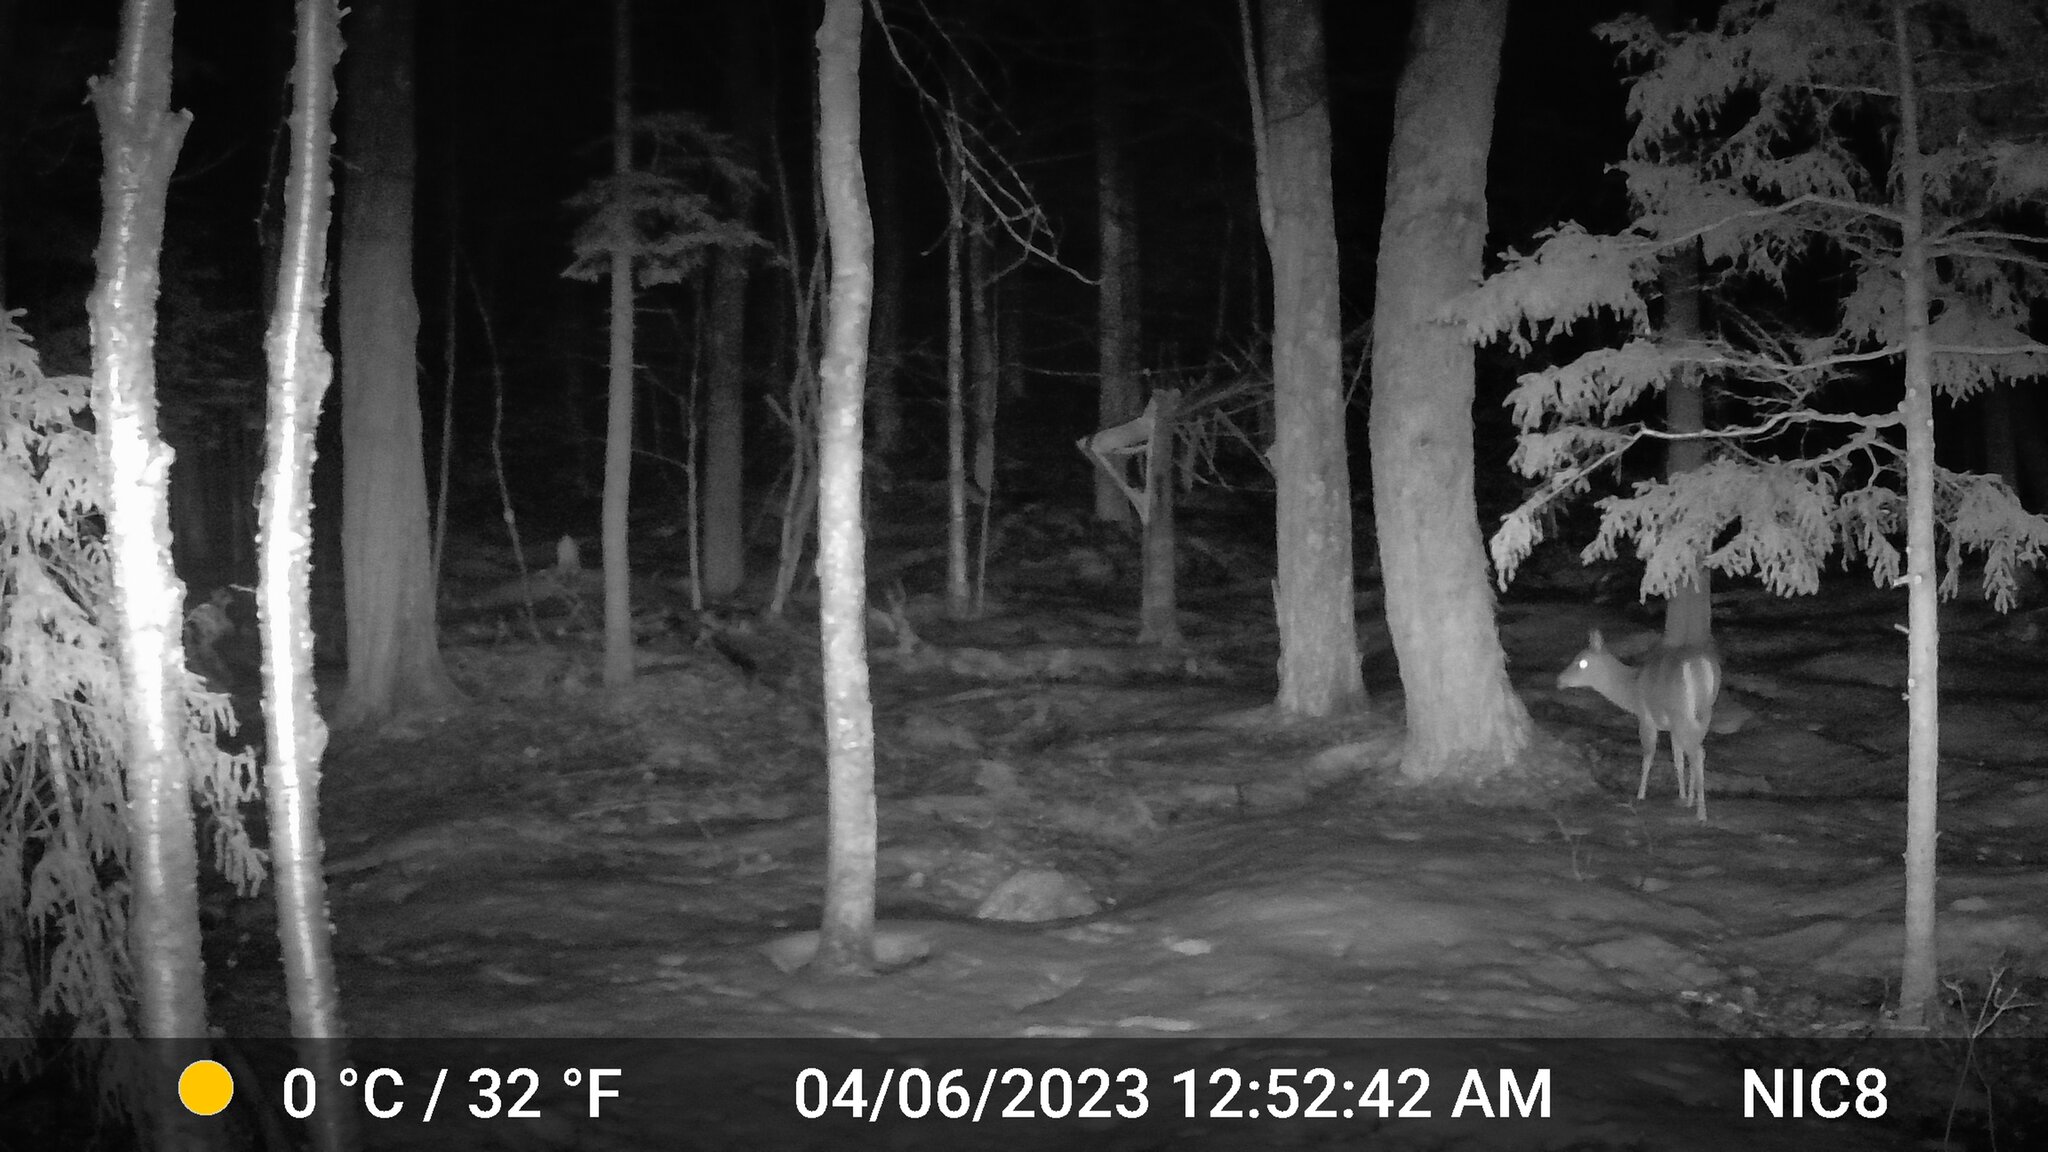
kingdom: Animalia
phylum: Chordata
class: Mammalia
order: Artiodactyla
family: Cervidae
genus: Odocoileus
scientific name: Odocoileus virginianus
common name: White-tailed deer
